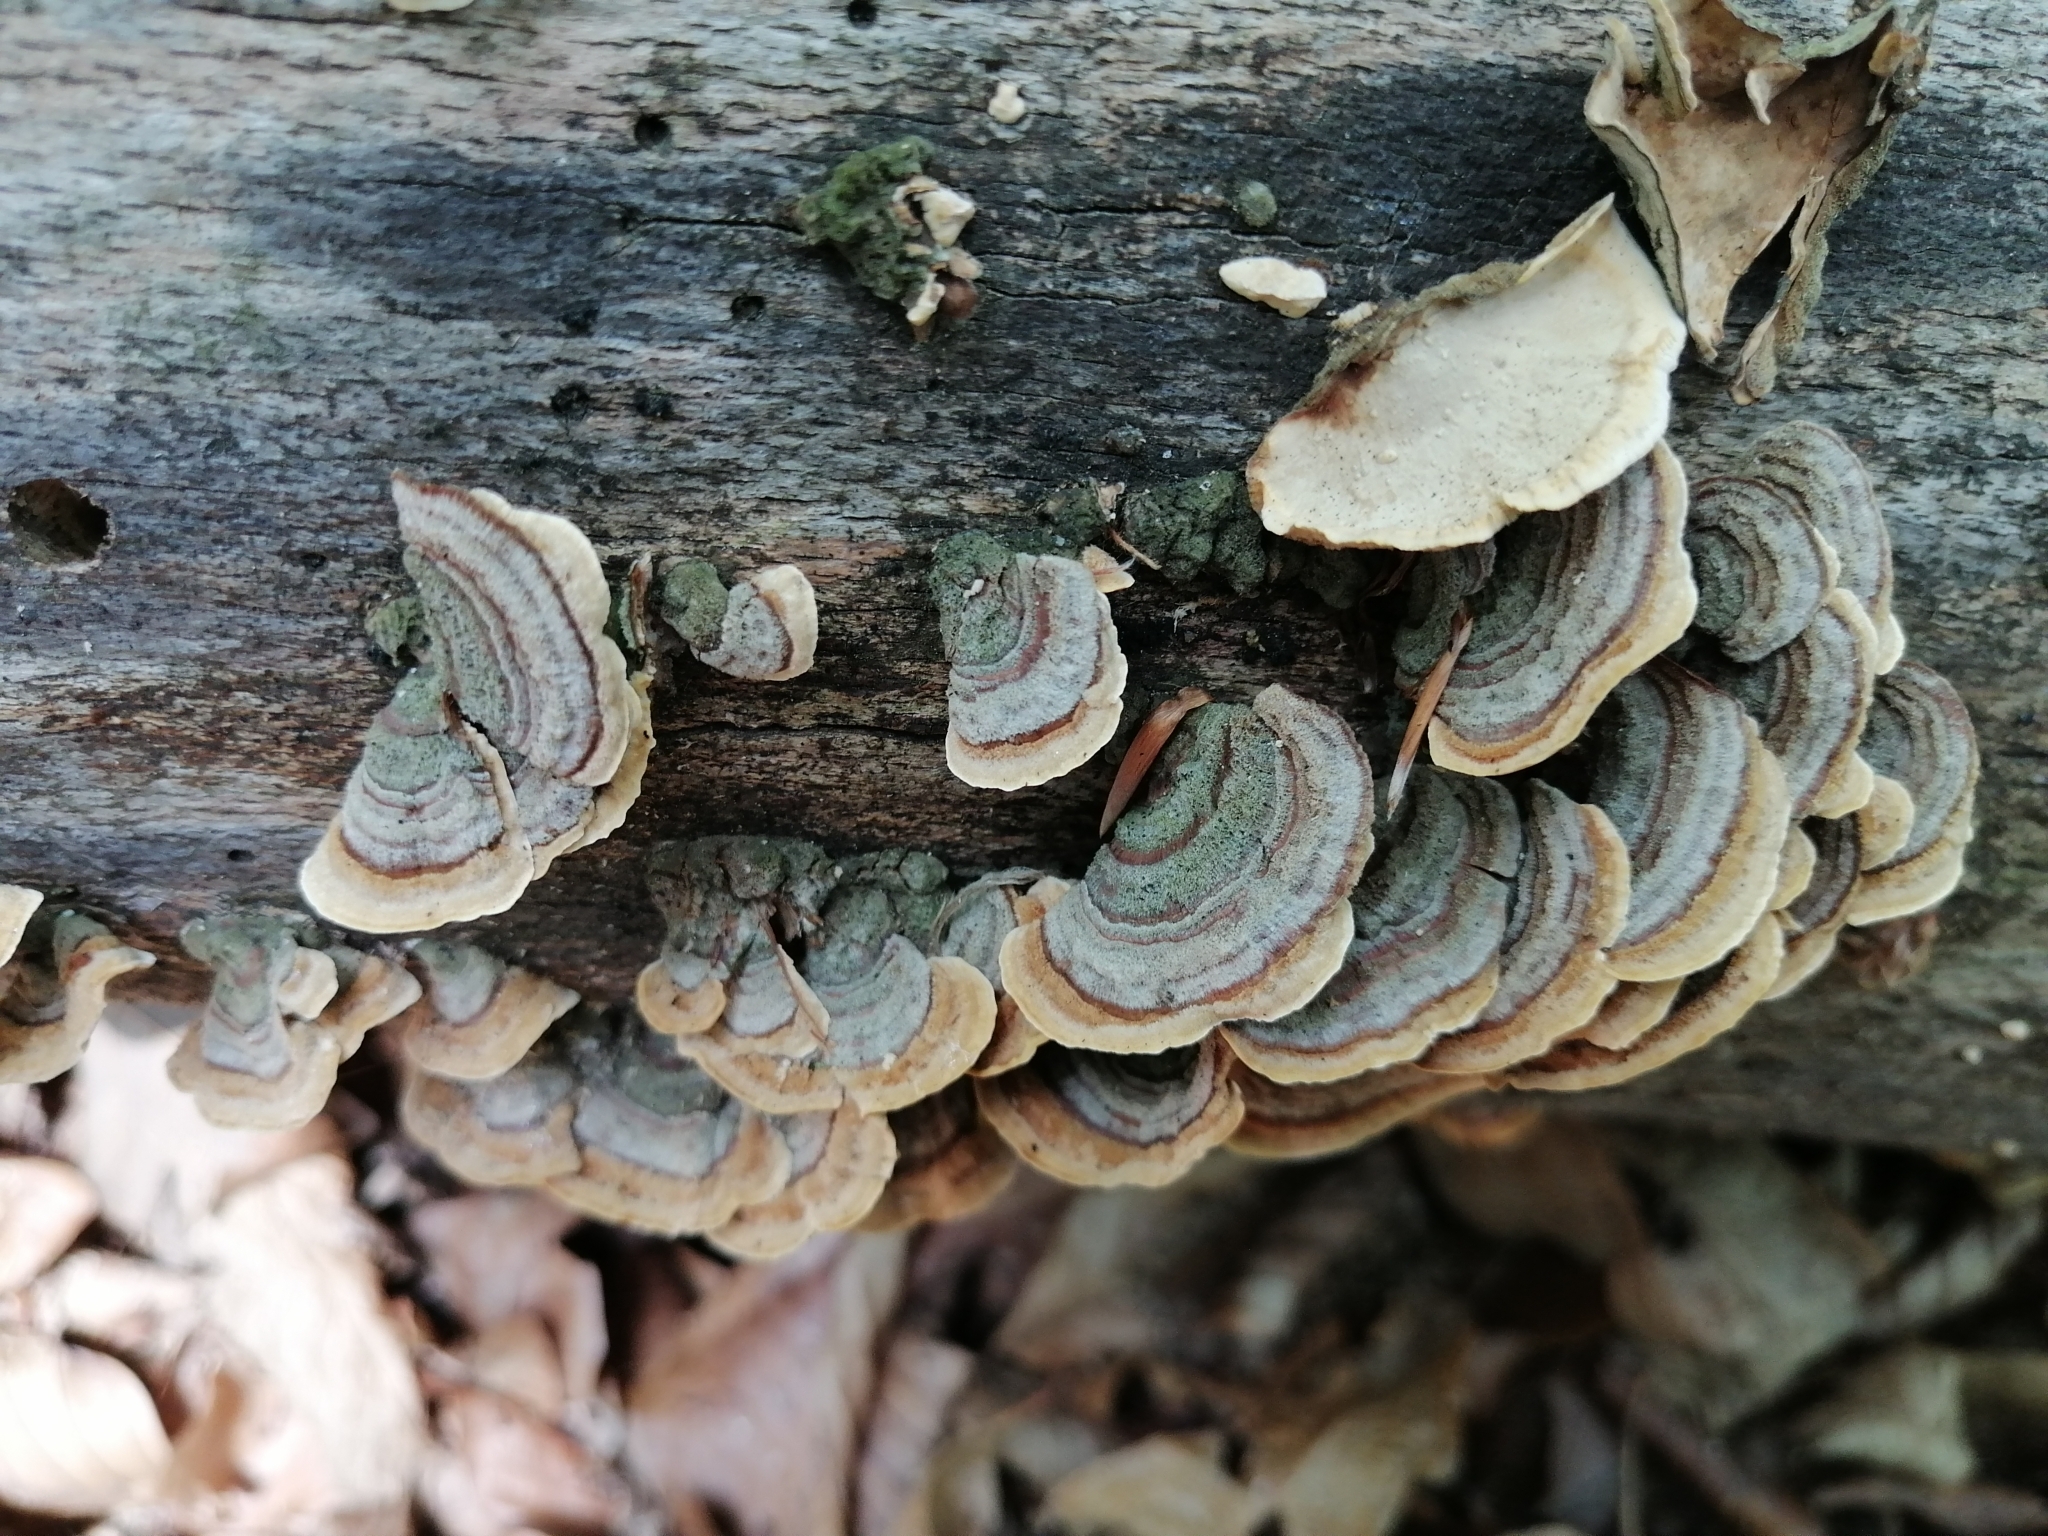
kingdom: Fungi
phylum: Basidiomycota
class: Agaricomycetes
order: Russulales
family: Stereaceae
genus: Stereum
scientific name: Stereum subtomentosum
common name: Yellowing curtain crust
